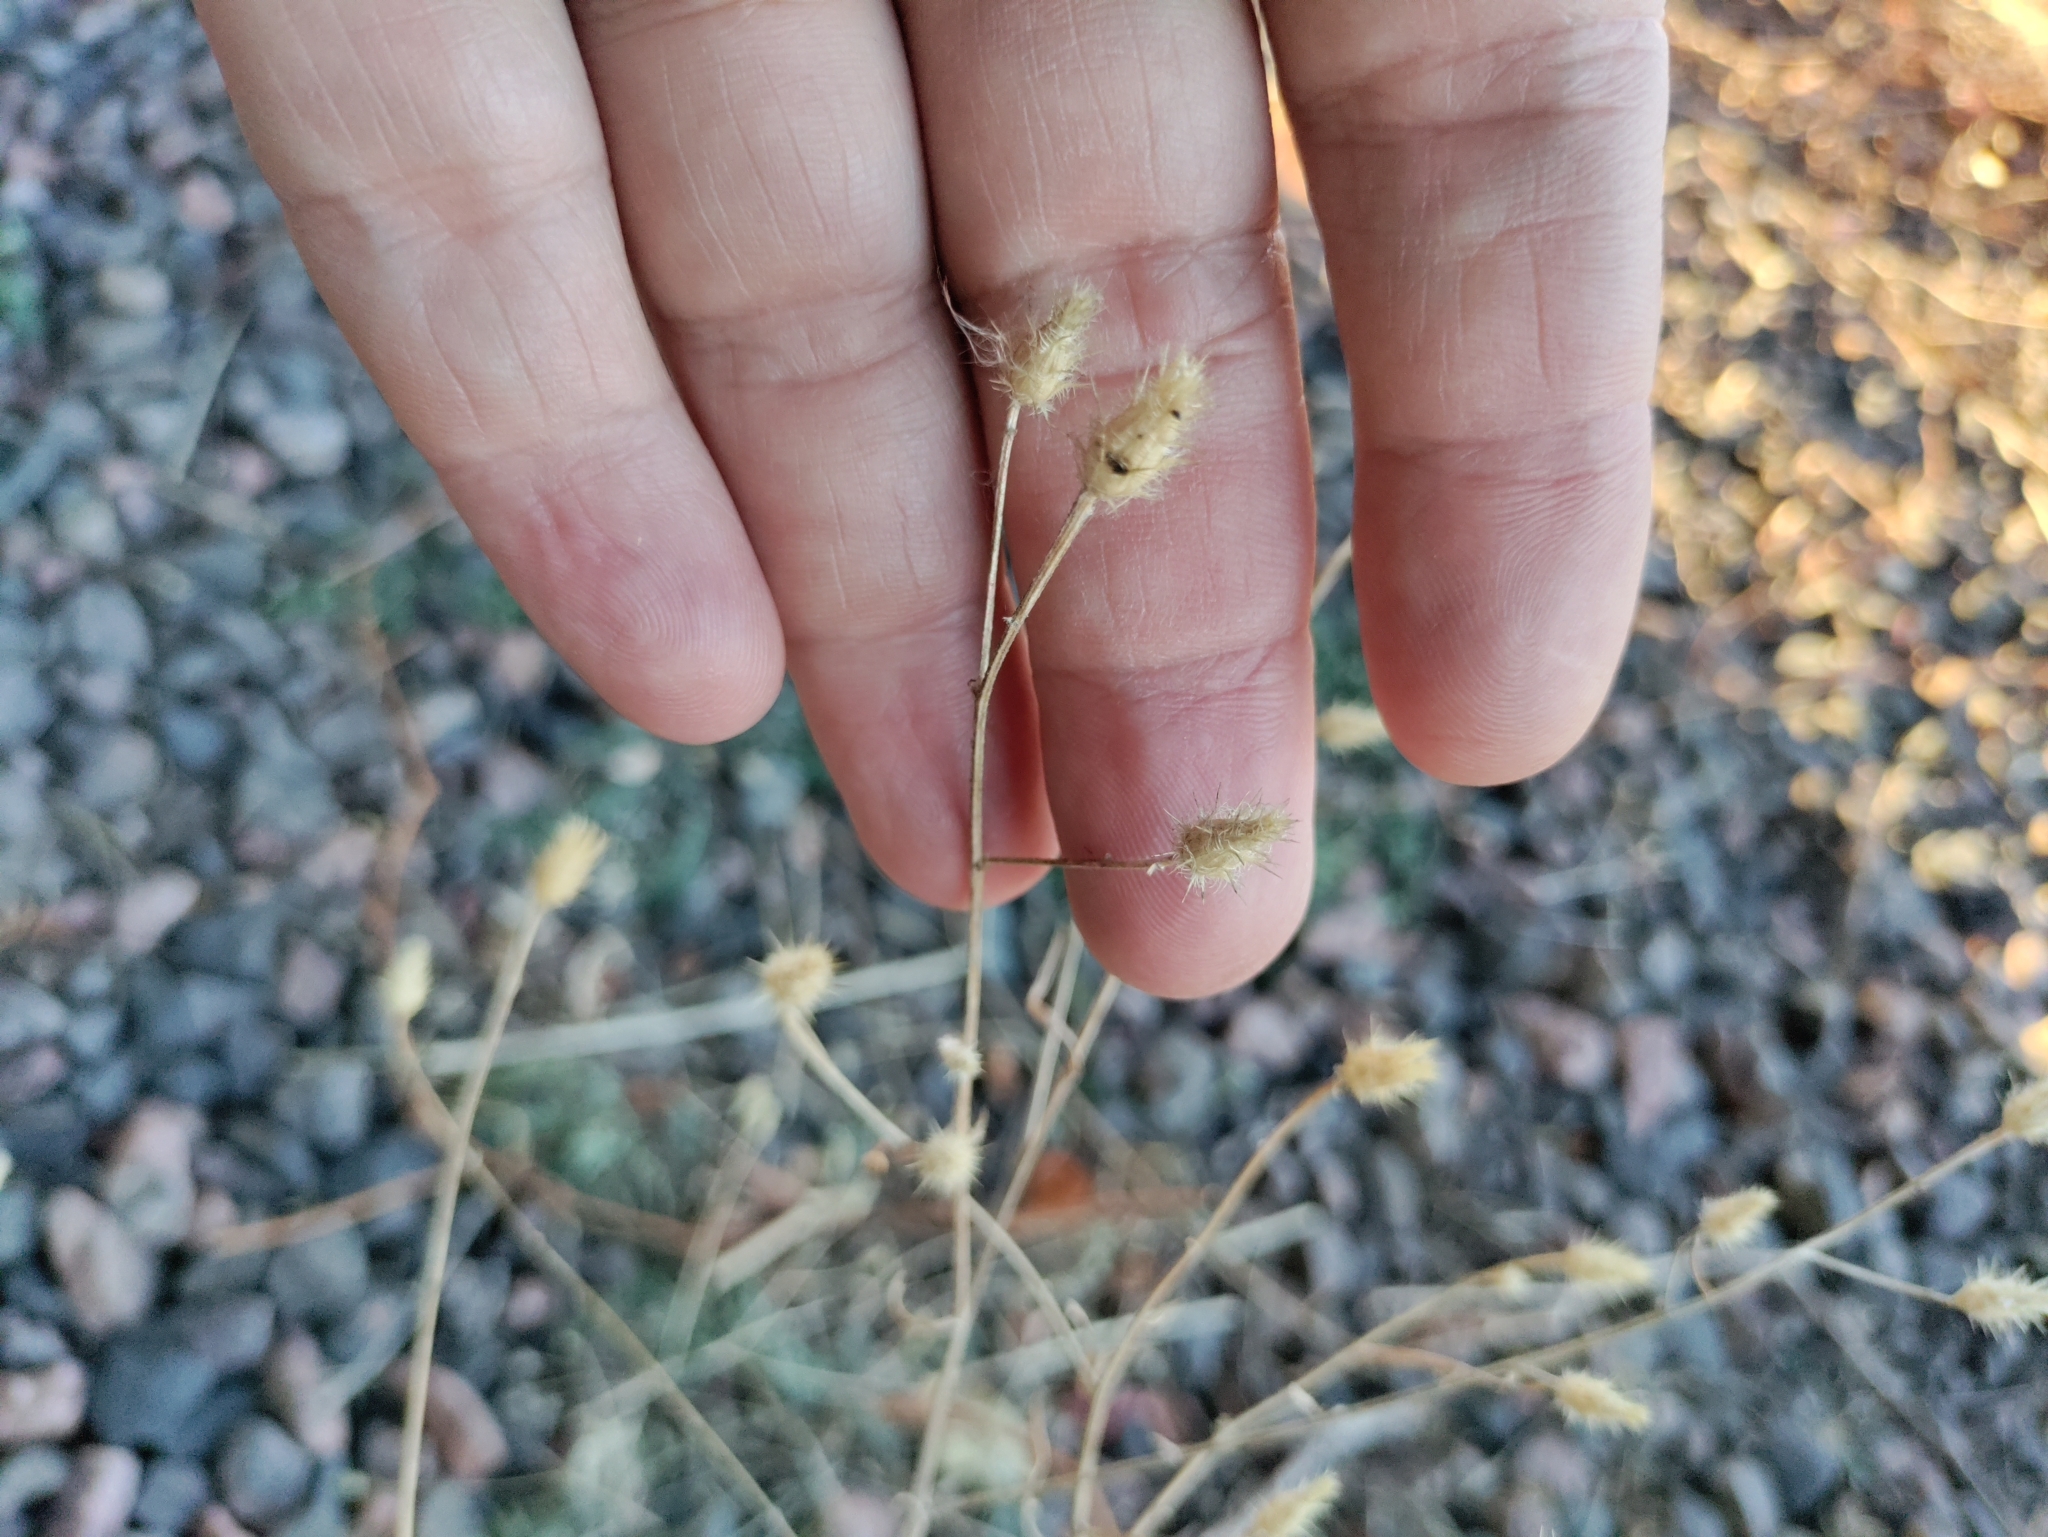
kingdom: Plantae
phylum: Tracheophyta
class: Magnoliopsida
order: Asterales
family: Asteraceae
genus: Centaurea
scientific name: Centaurea diffusa
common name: Diffuse knapweed
